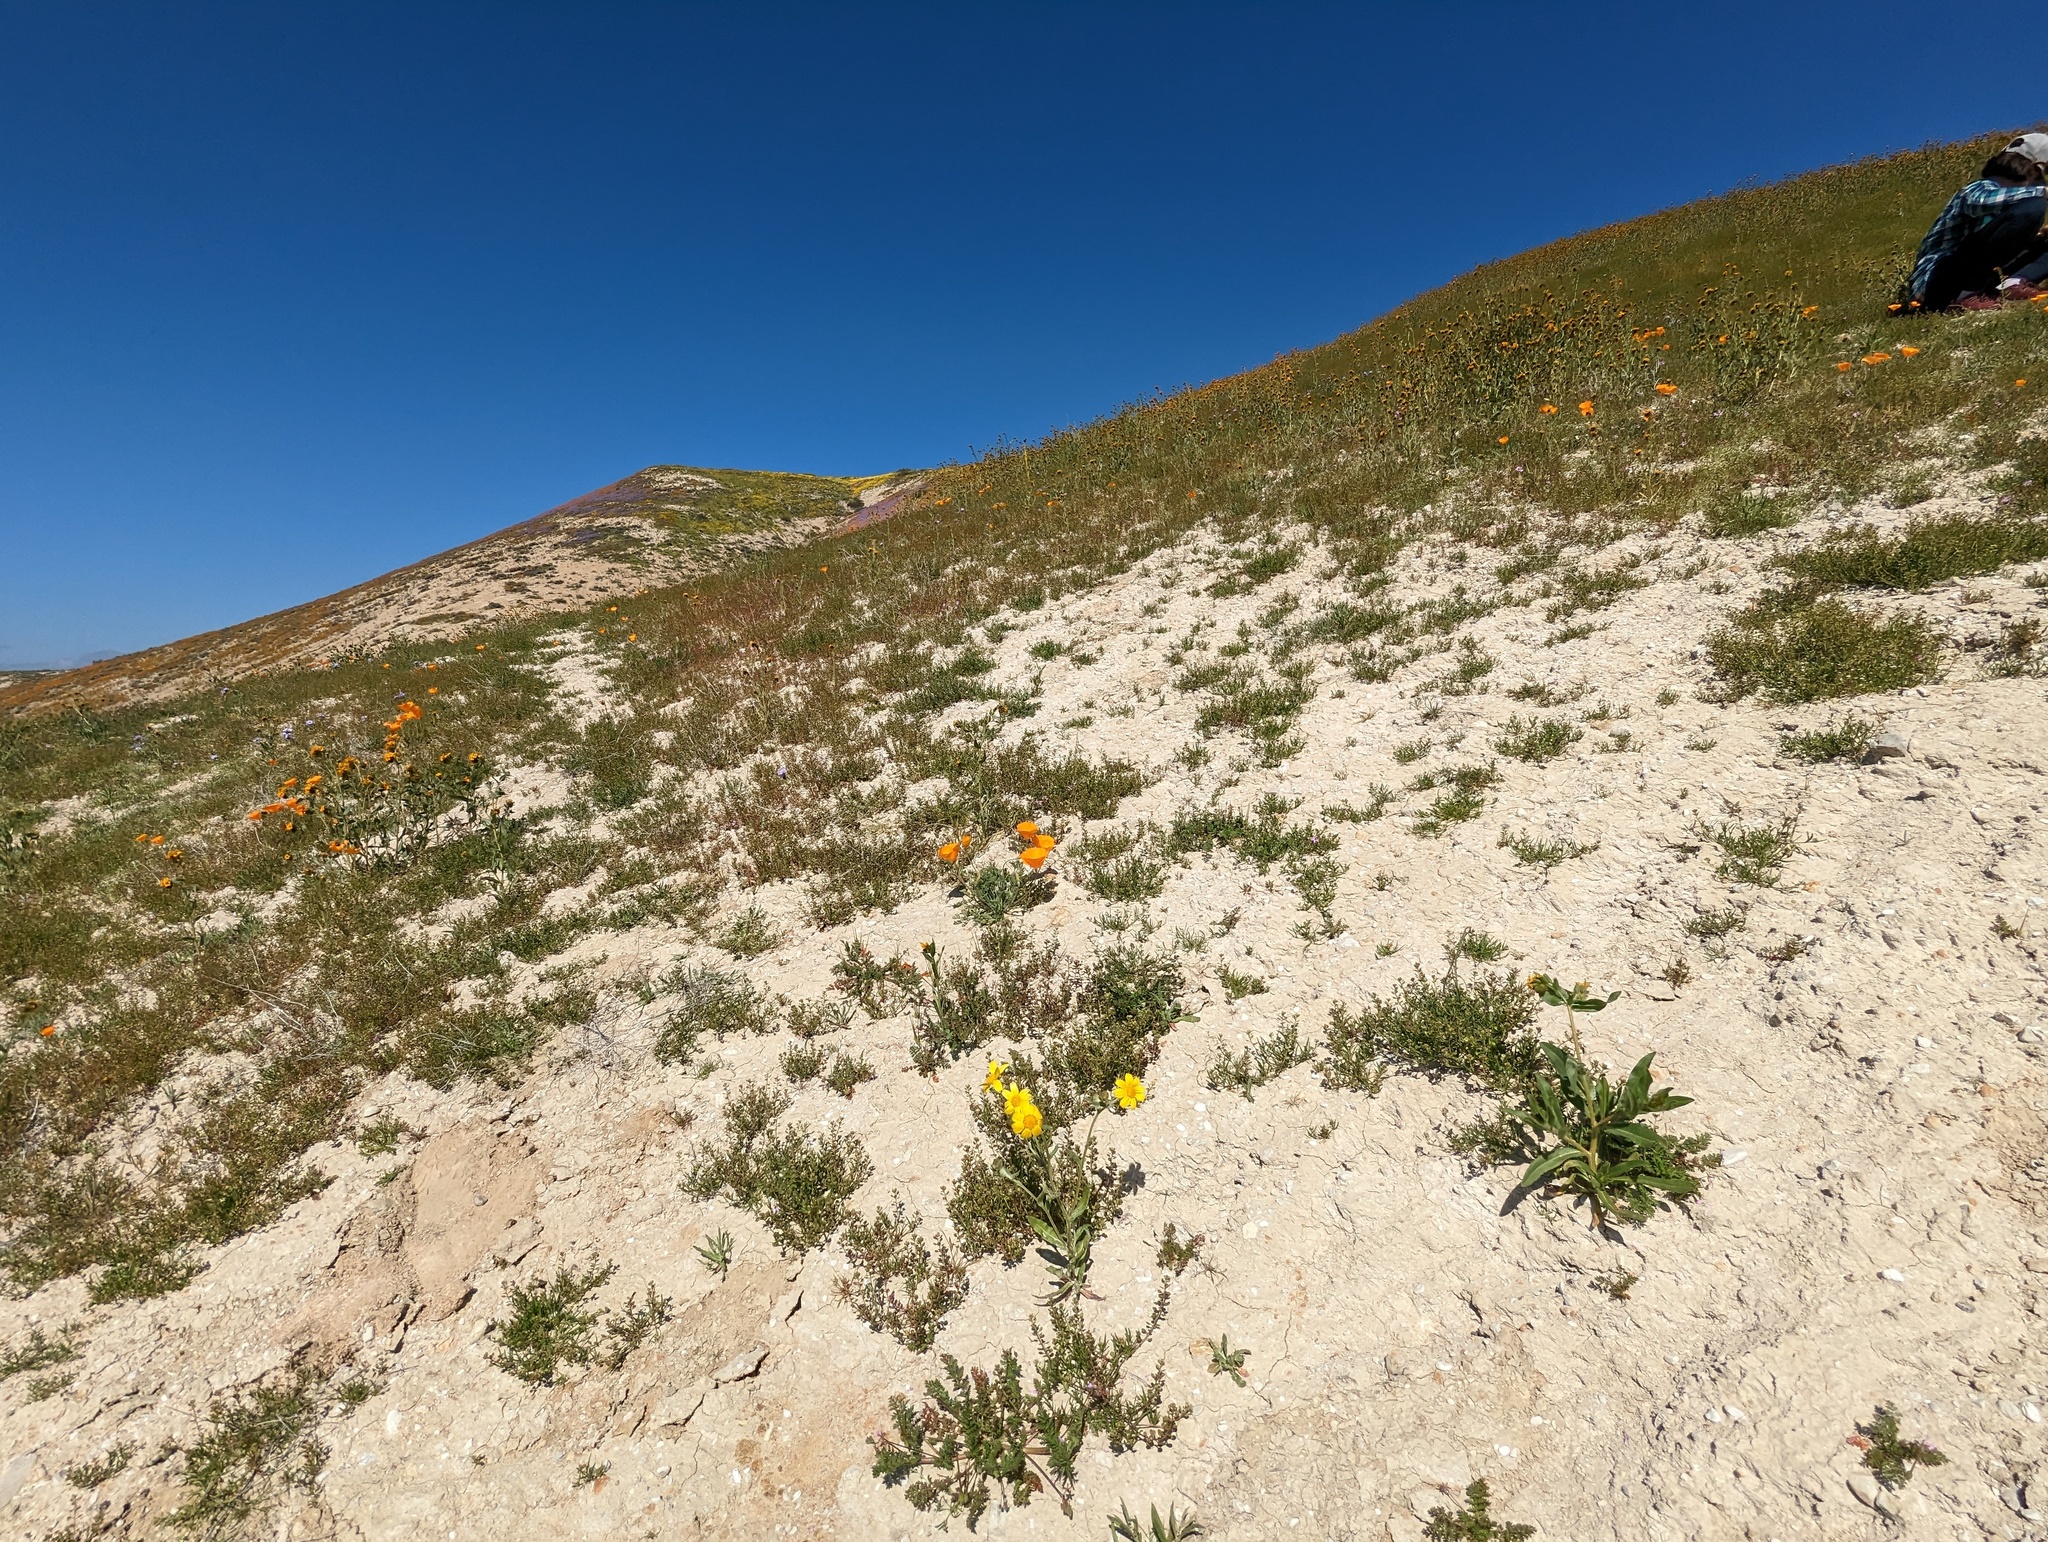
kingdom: Plantae
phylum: Tracheophyta
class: Magnoliopsida
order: Ranunculales
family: Papaveraceae
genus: Eschscholzia
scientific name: Eschscholzia lemmonii
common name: Lemmon's poppy
